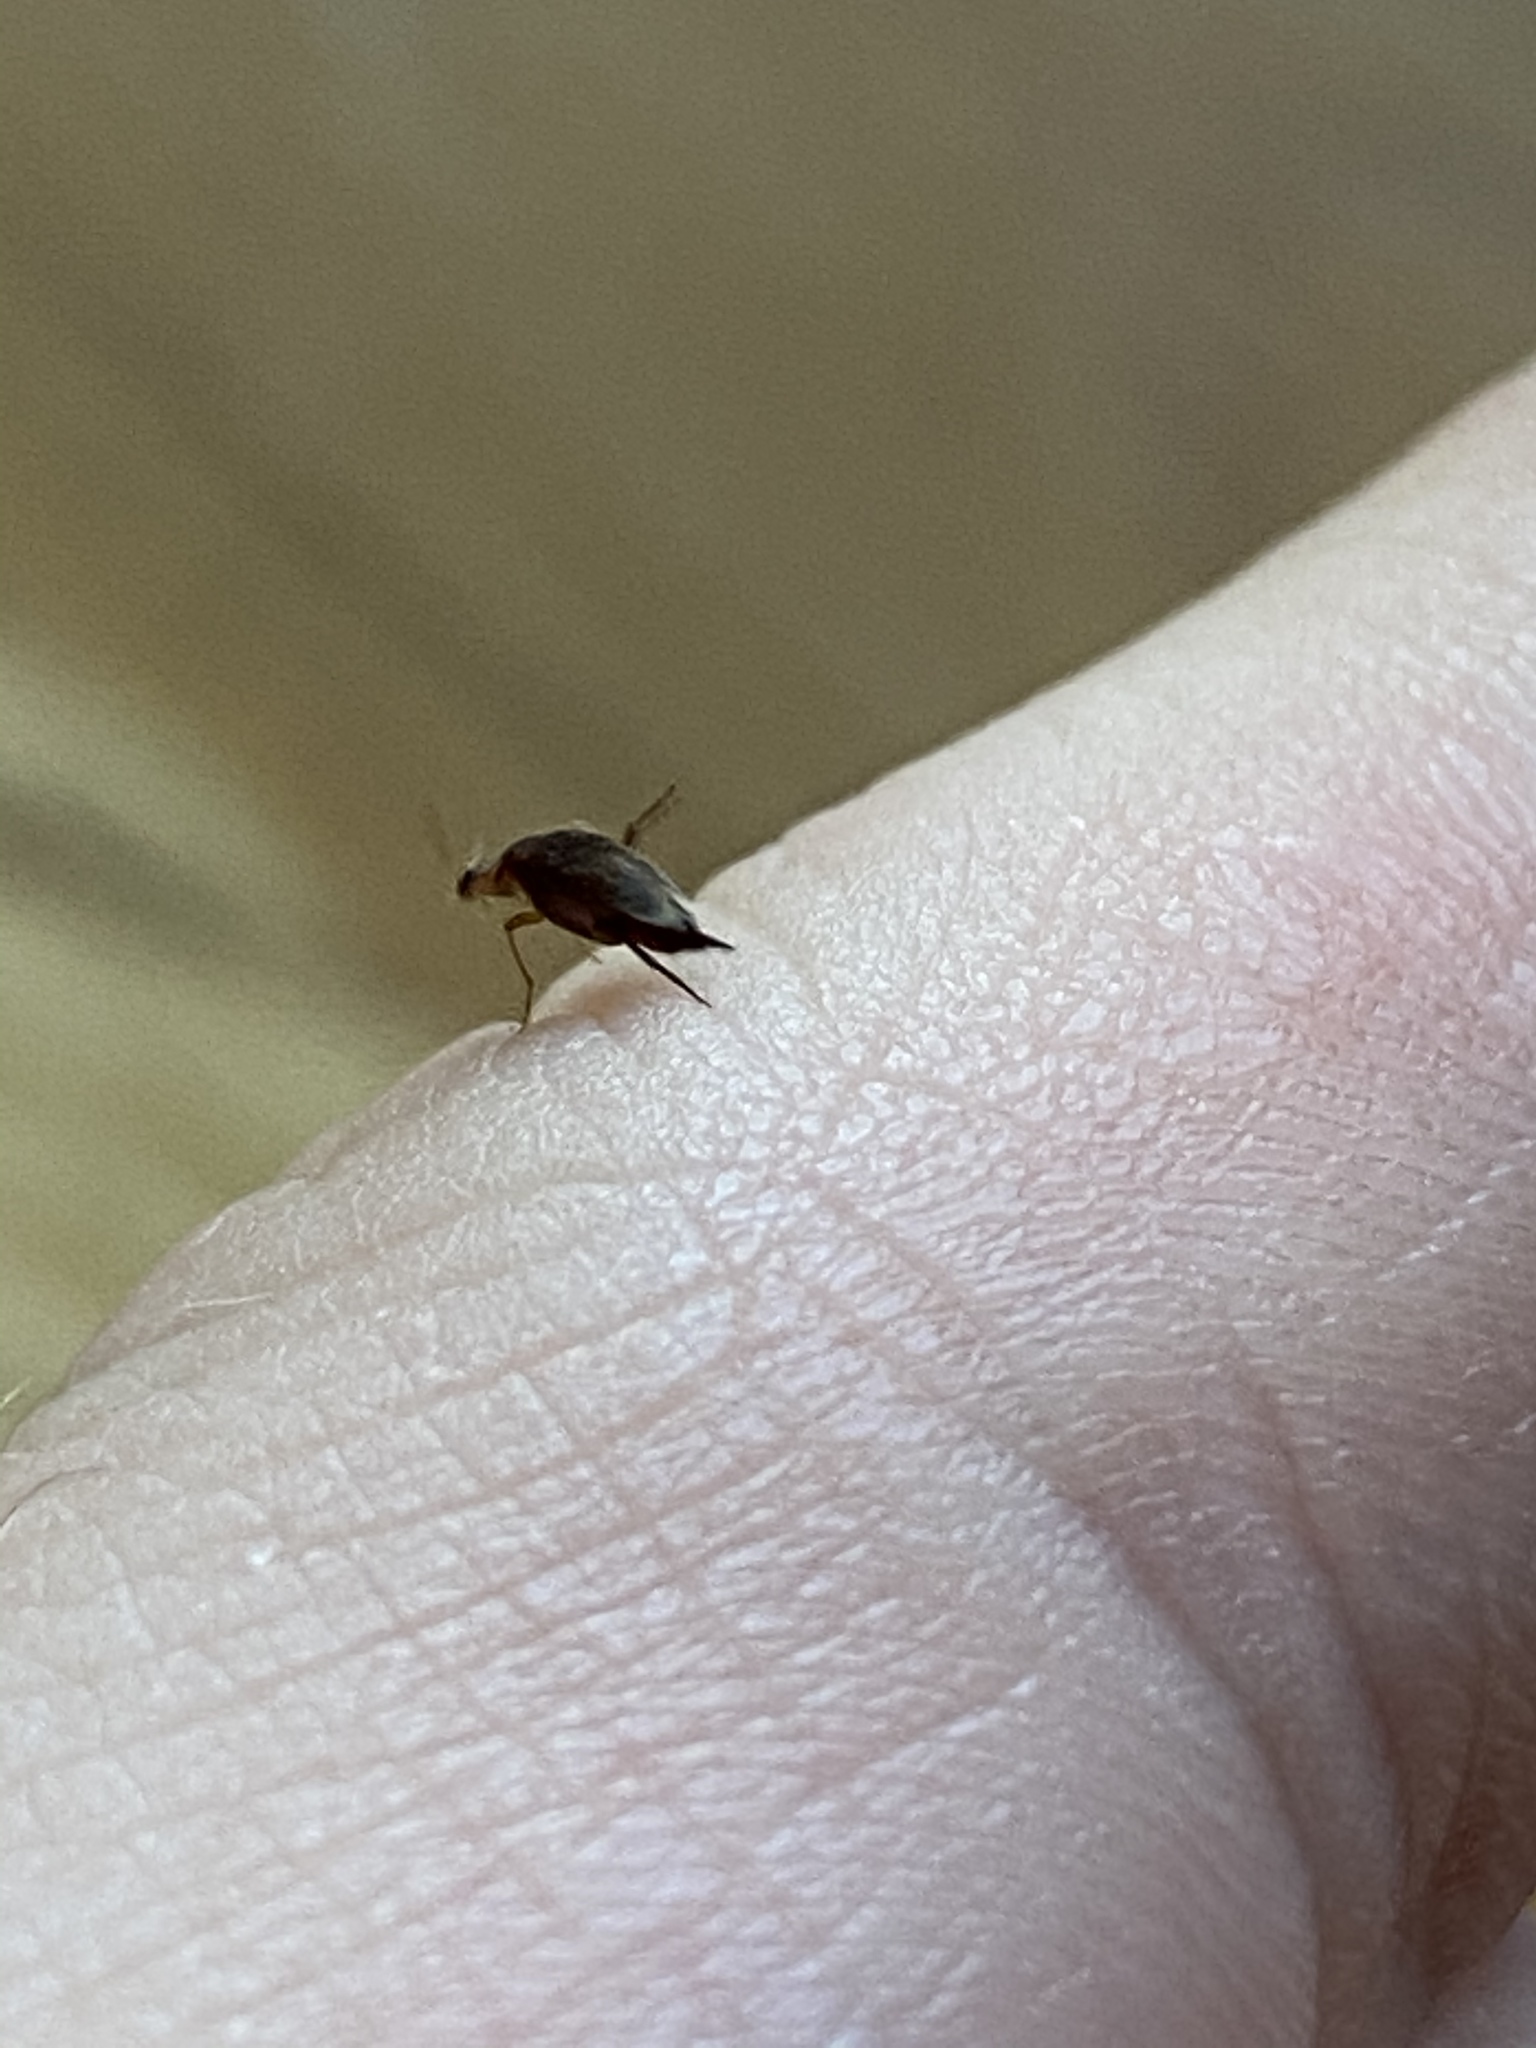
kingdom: Animalia
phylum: Arthropoda
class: Insecta
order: Coleoptera
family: Mordellidae
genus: Falsomordellistena
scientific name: Falsomordellistena liturata
